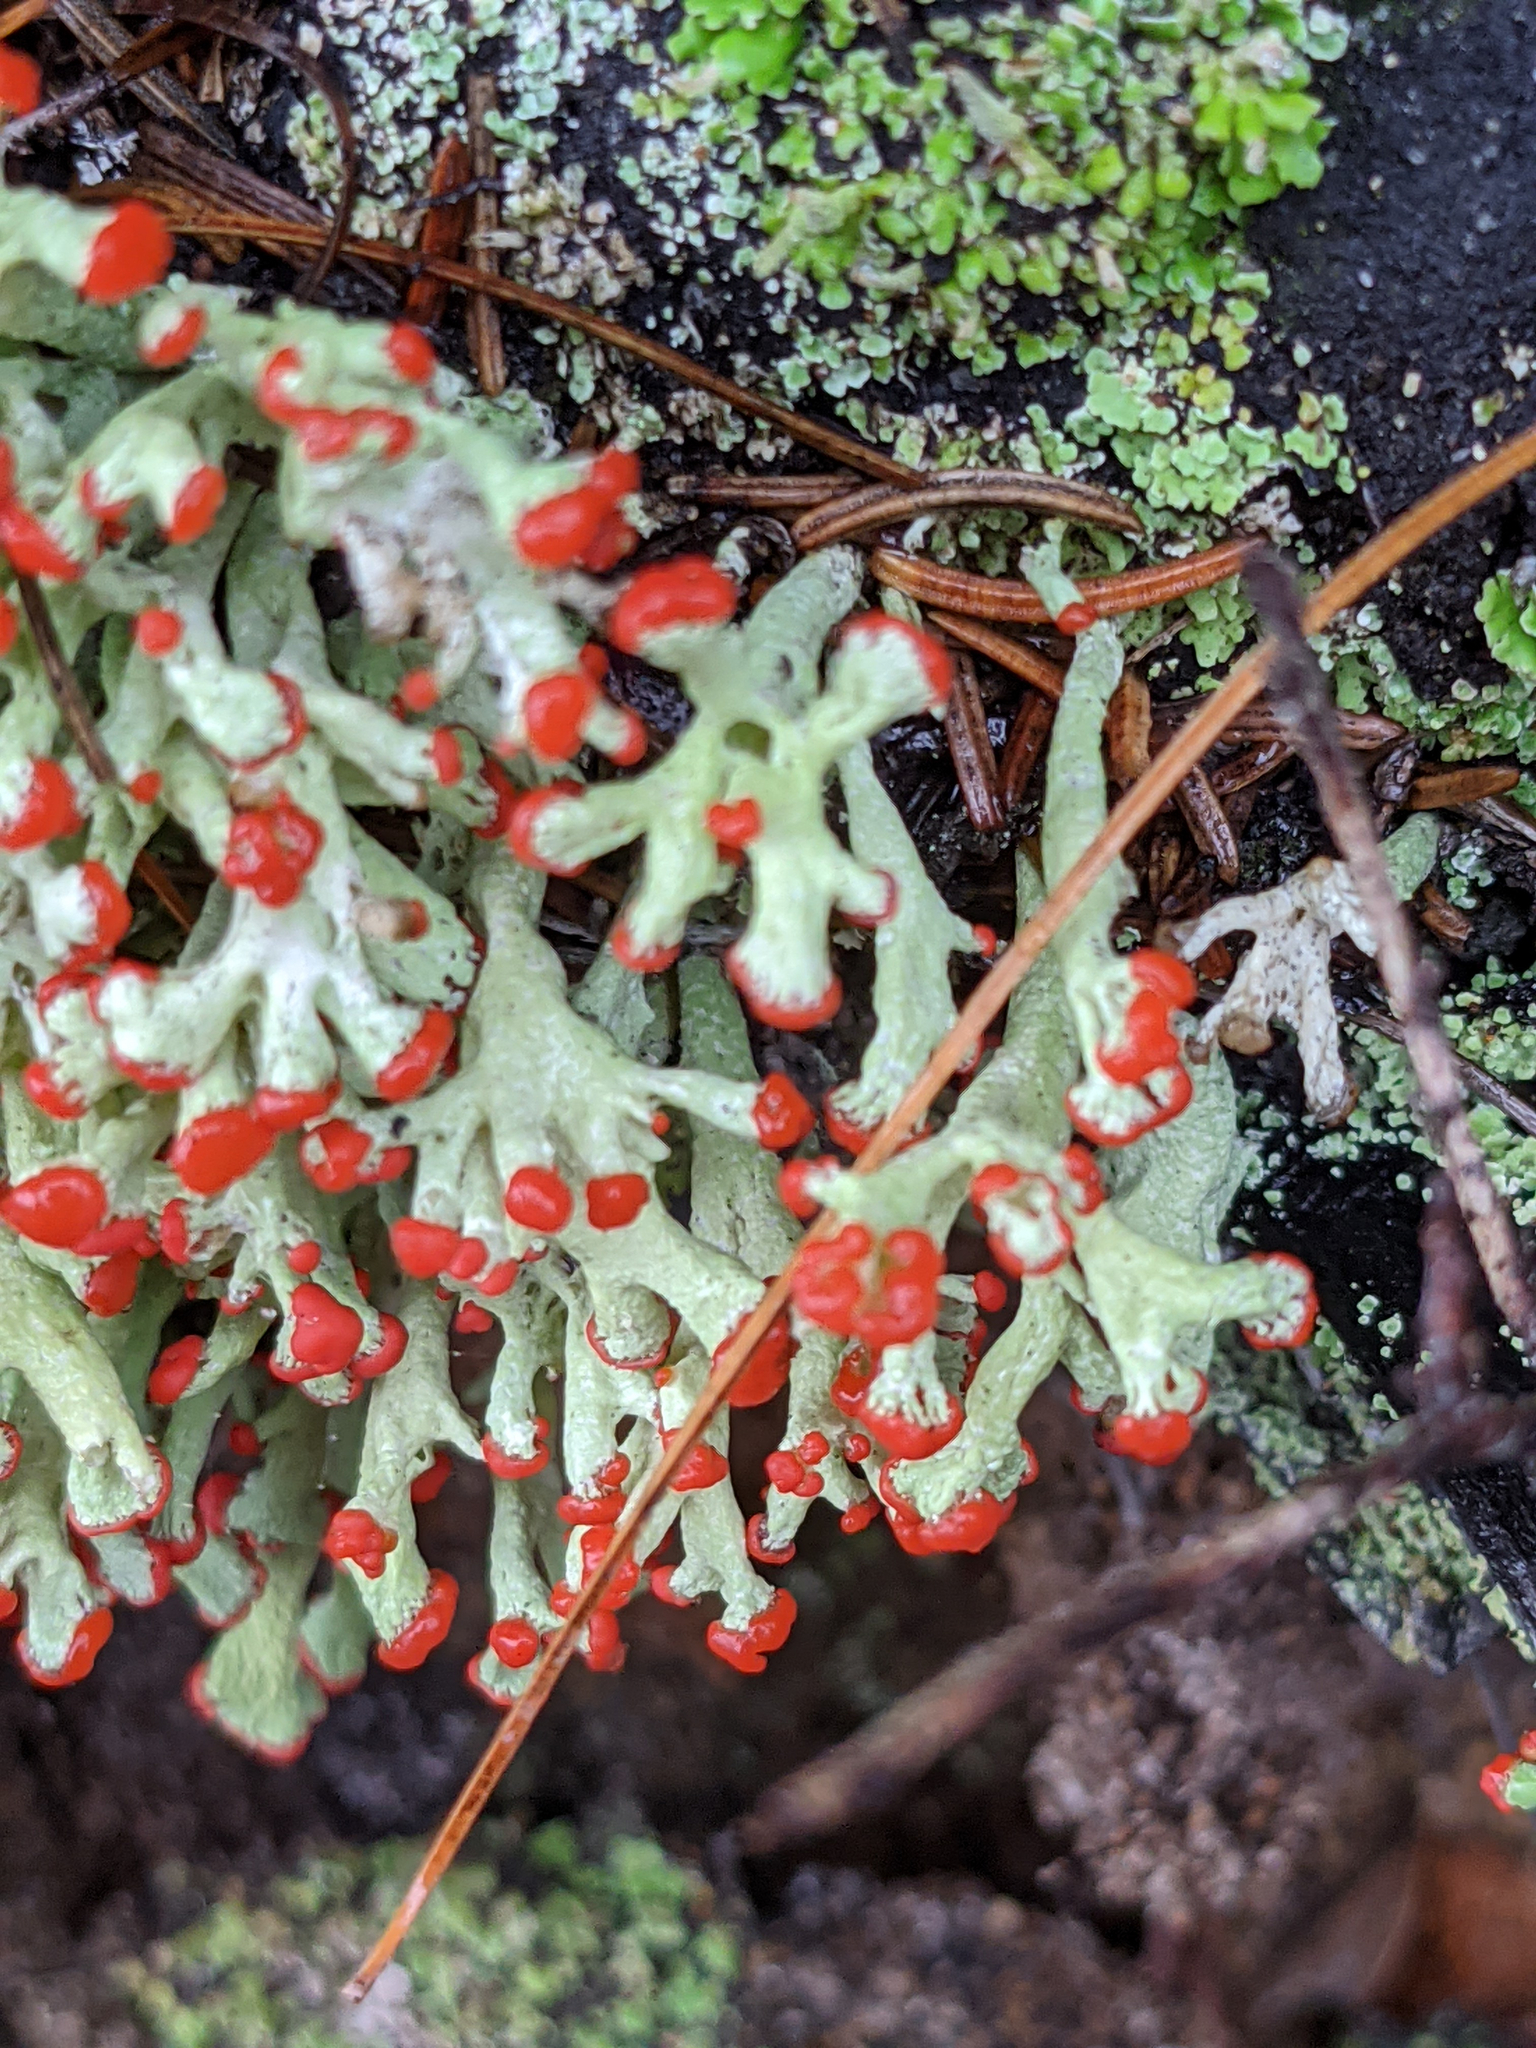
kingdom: Fungi
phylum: Ascomycota
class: Lecanoromycetes
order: Lecanorales
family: Cladoniaceae
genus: Cladonia
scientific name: Cladonia cristatella
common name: British soldier lichen
